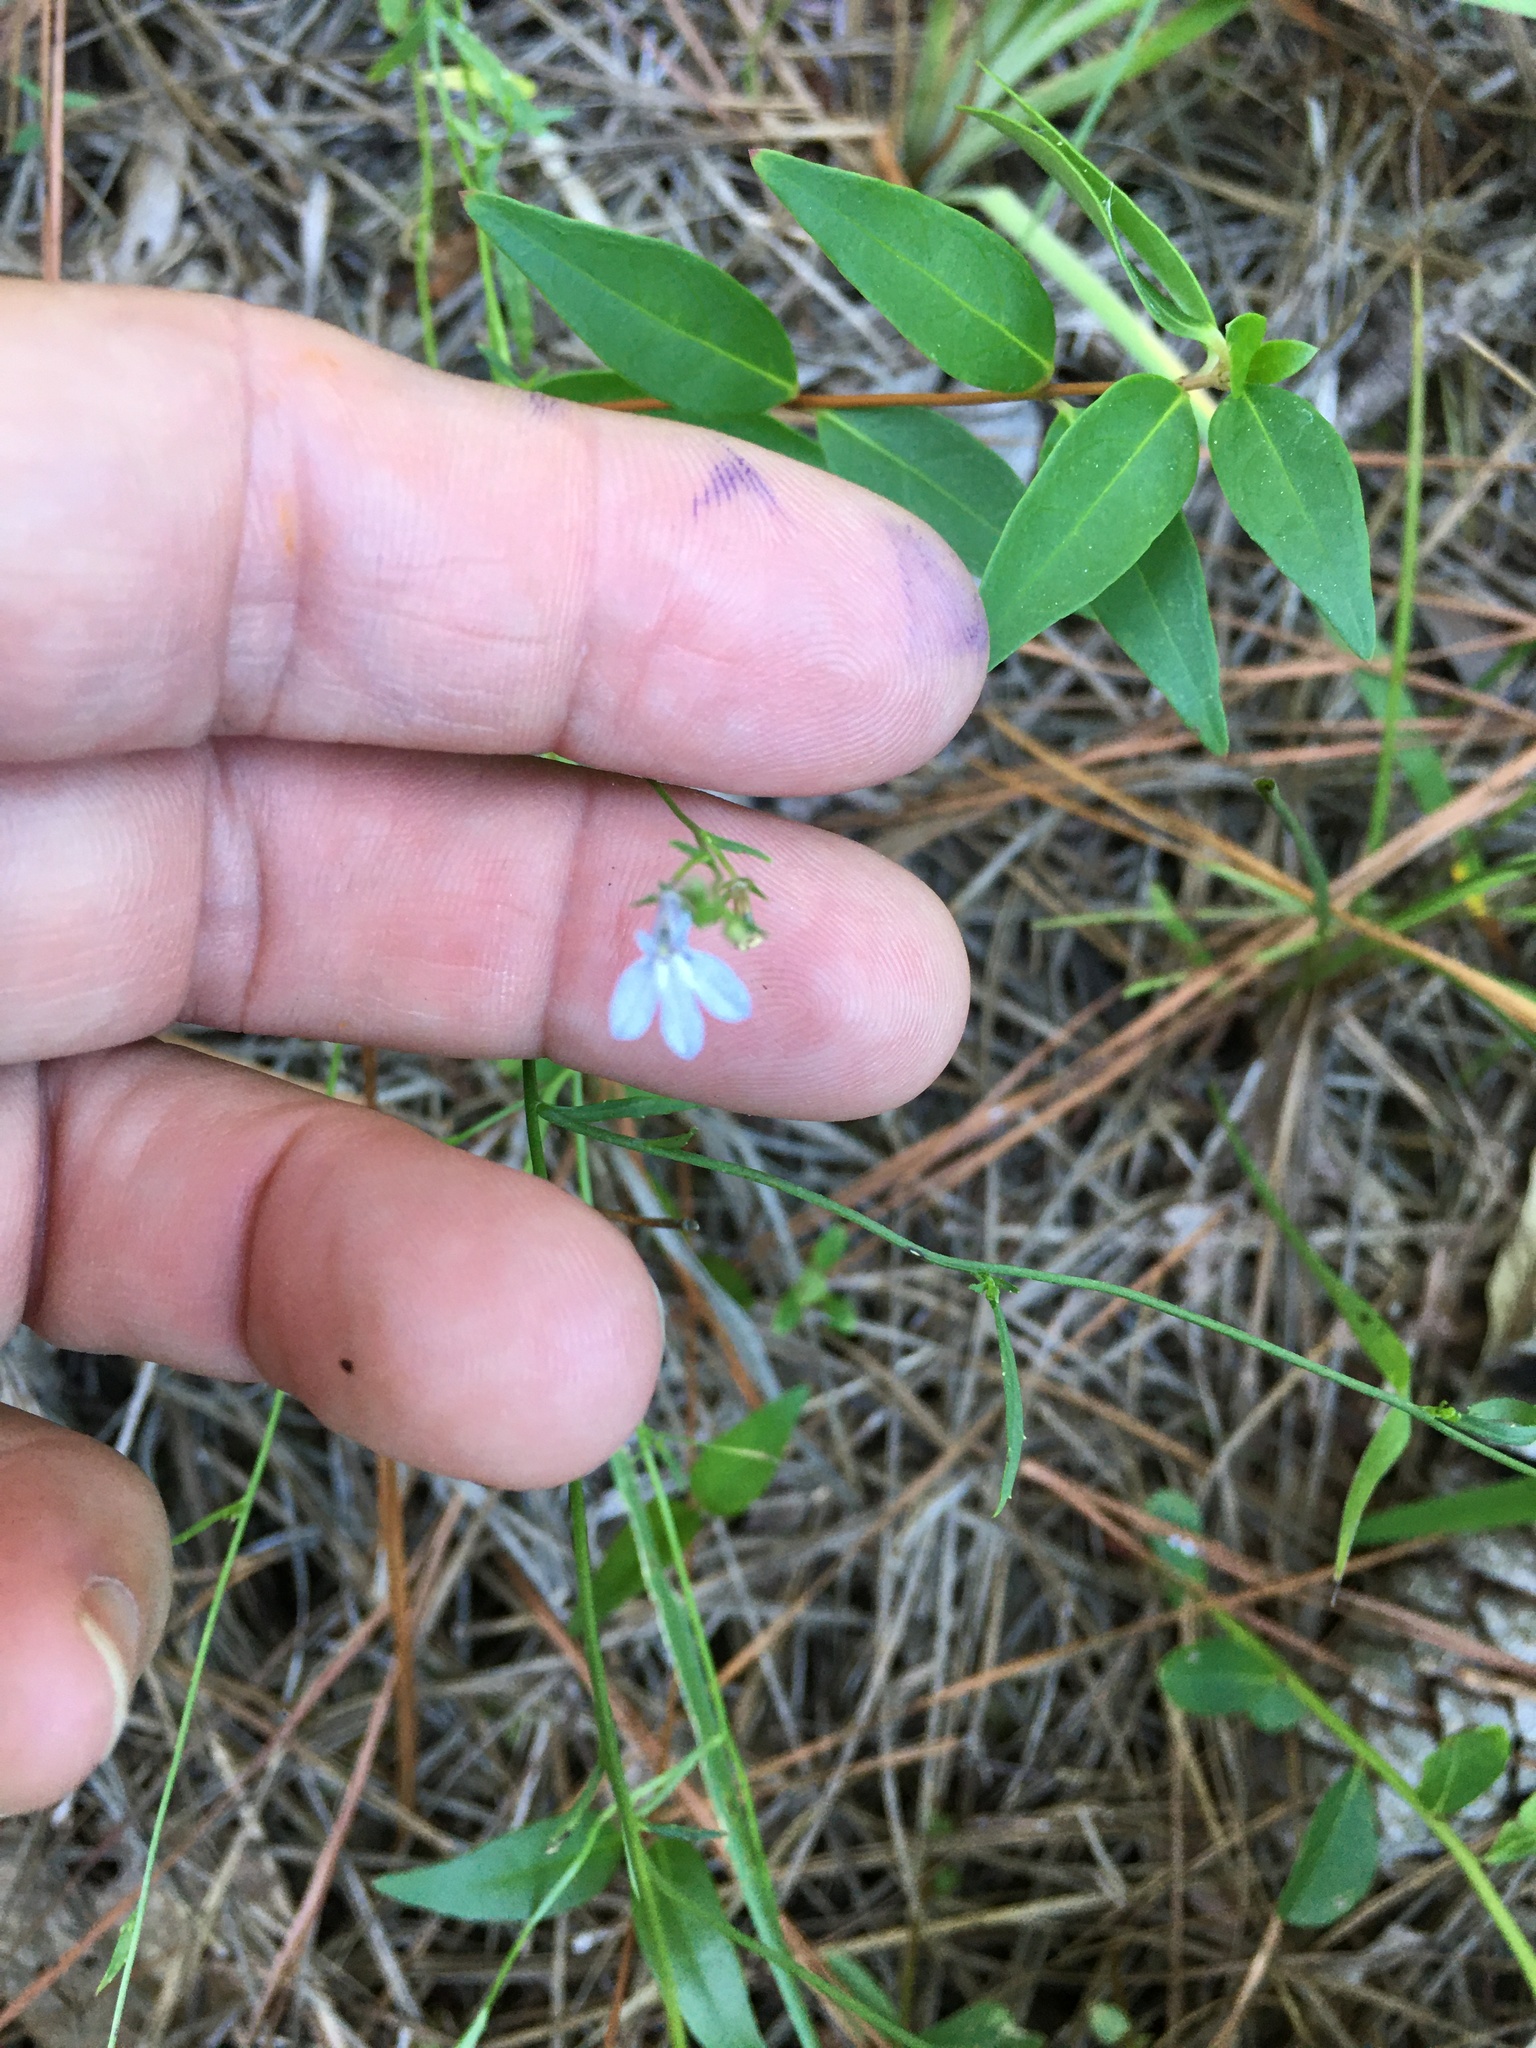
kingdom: Plantae
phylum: Tracheophyta
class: Magnoliopsida
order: Asterales
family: Campanulaceae
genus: Lobelia
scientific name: Lobelia nuttallii
